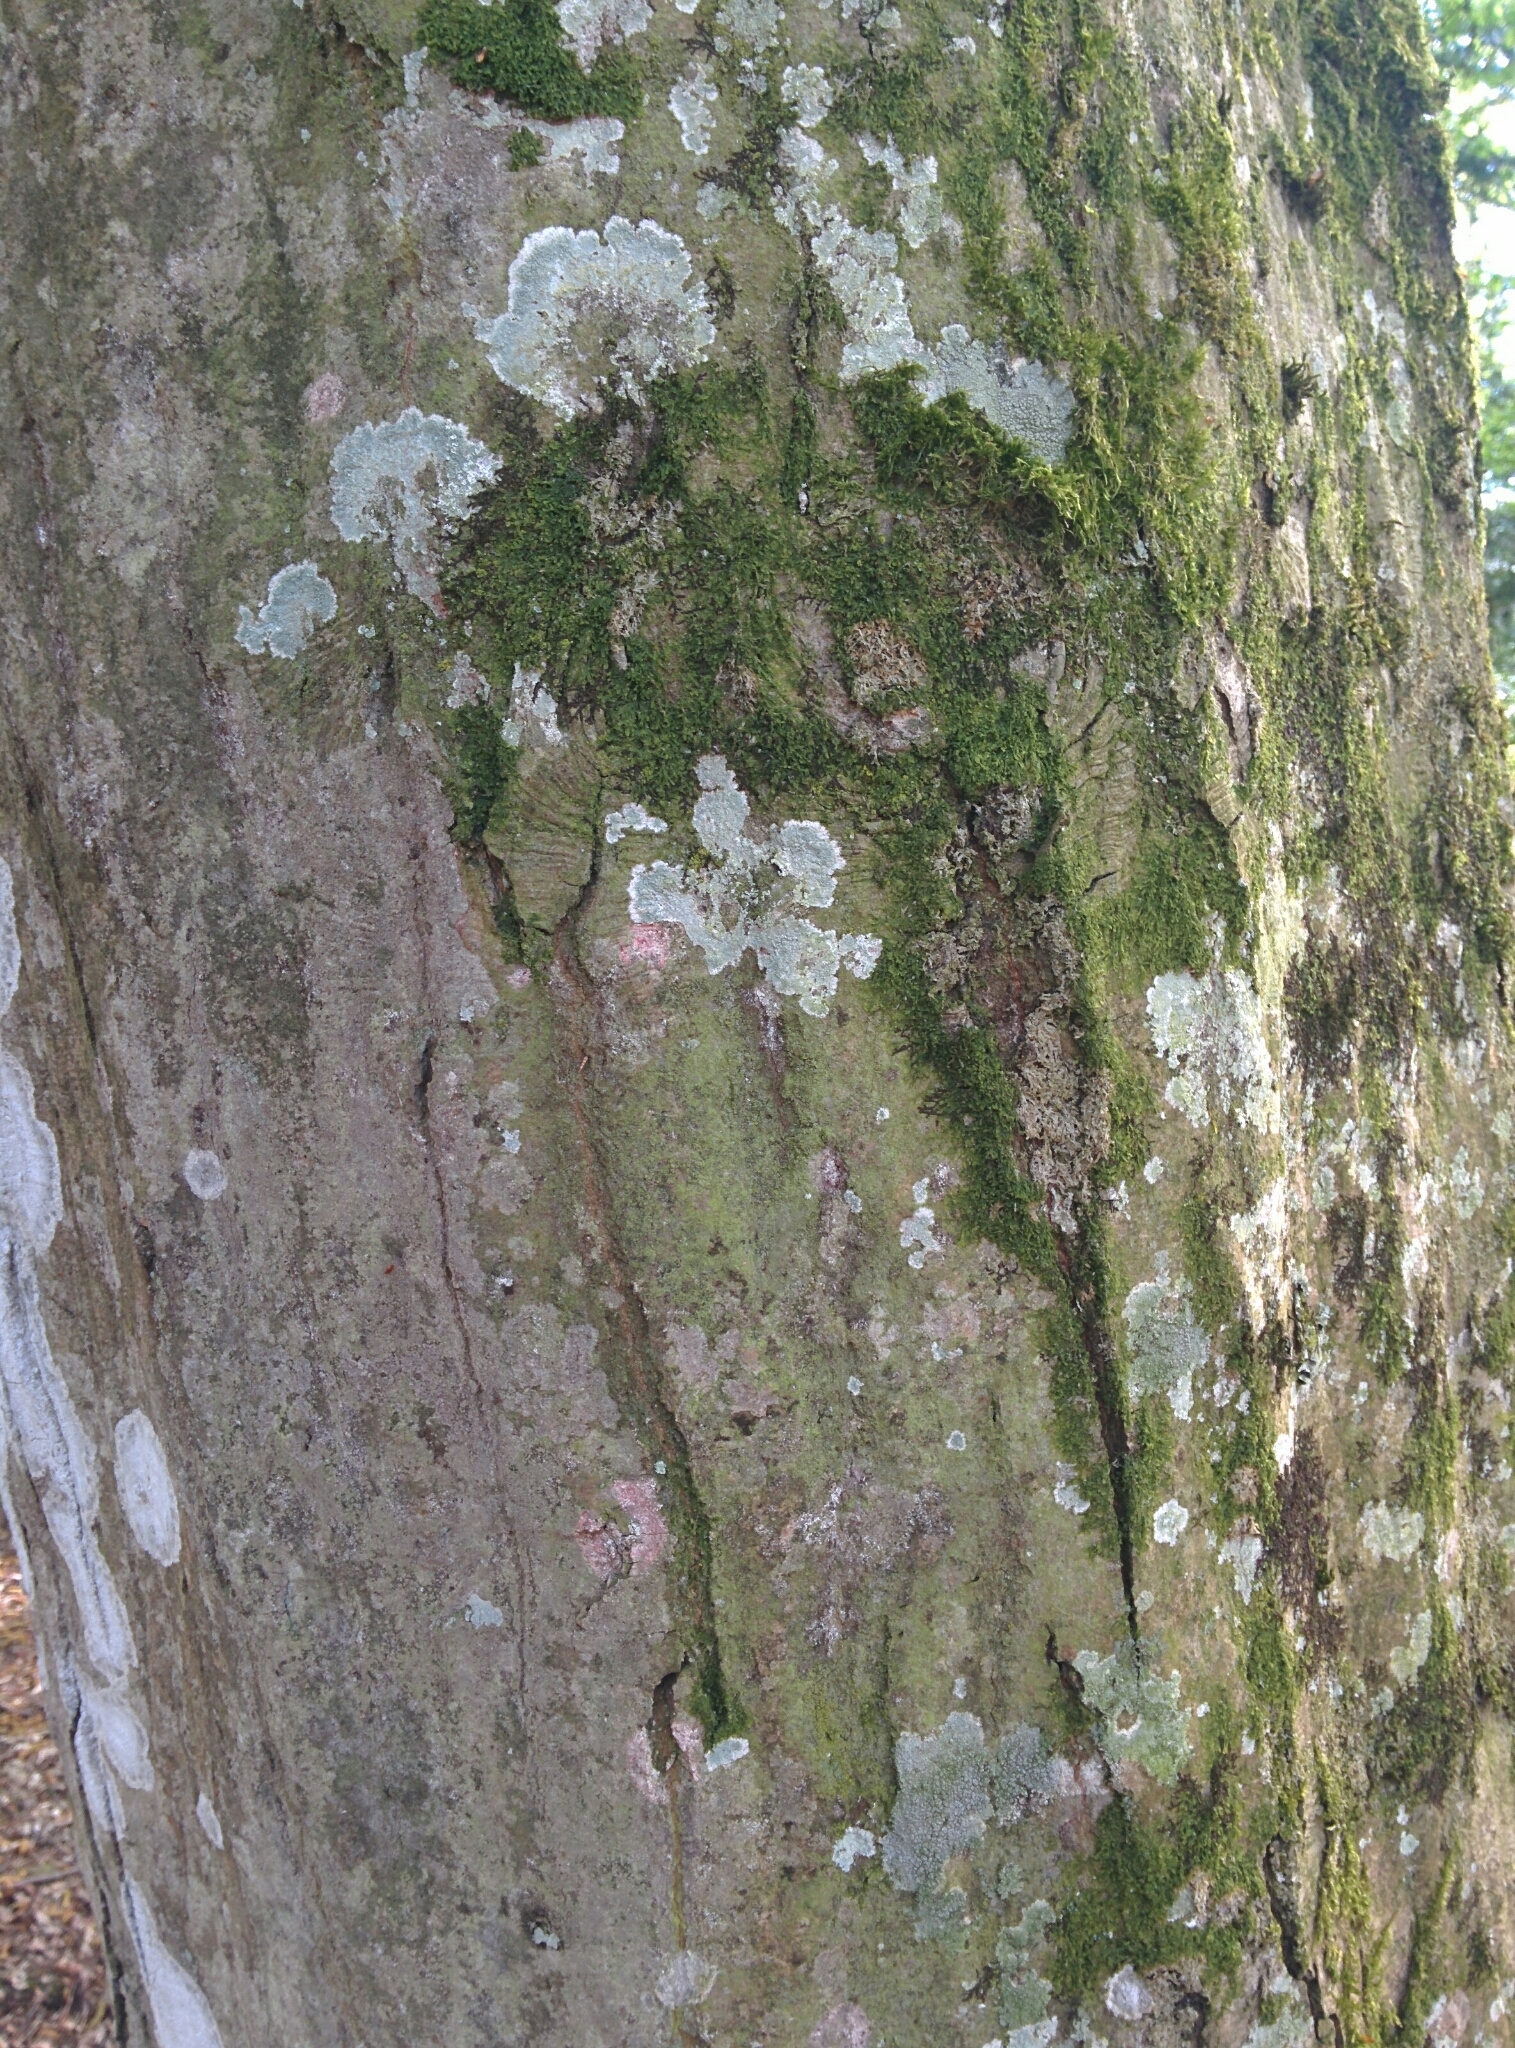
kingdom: Plantae
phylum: Tracheophyta
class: Magnoliopsida
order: Fagales
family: Betulaceae
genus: Carpinus
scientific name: Carpinus betulus
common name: Hornbeam
